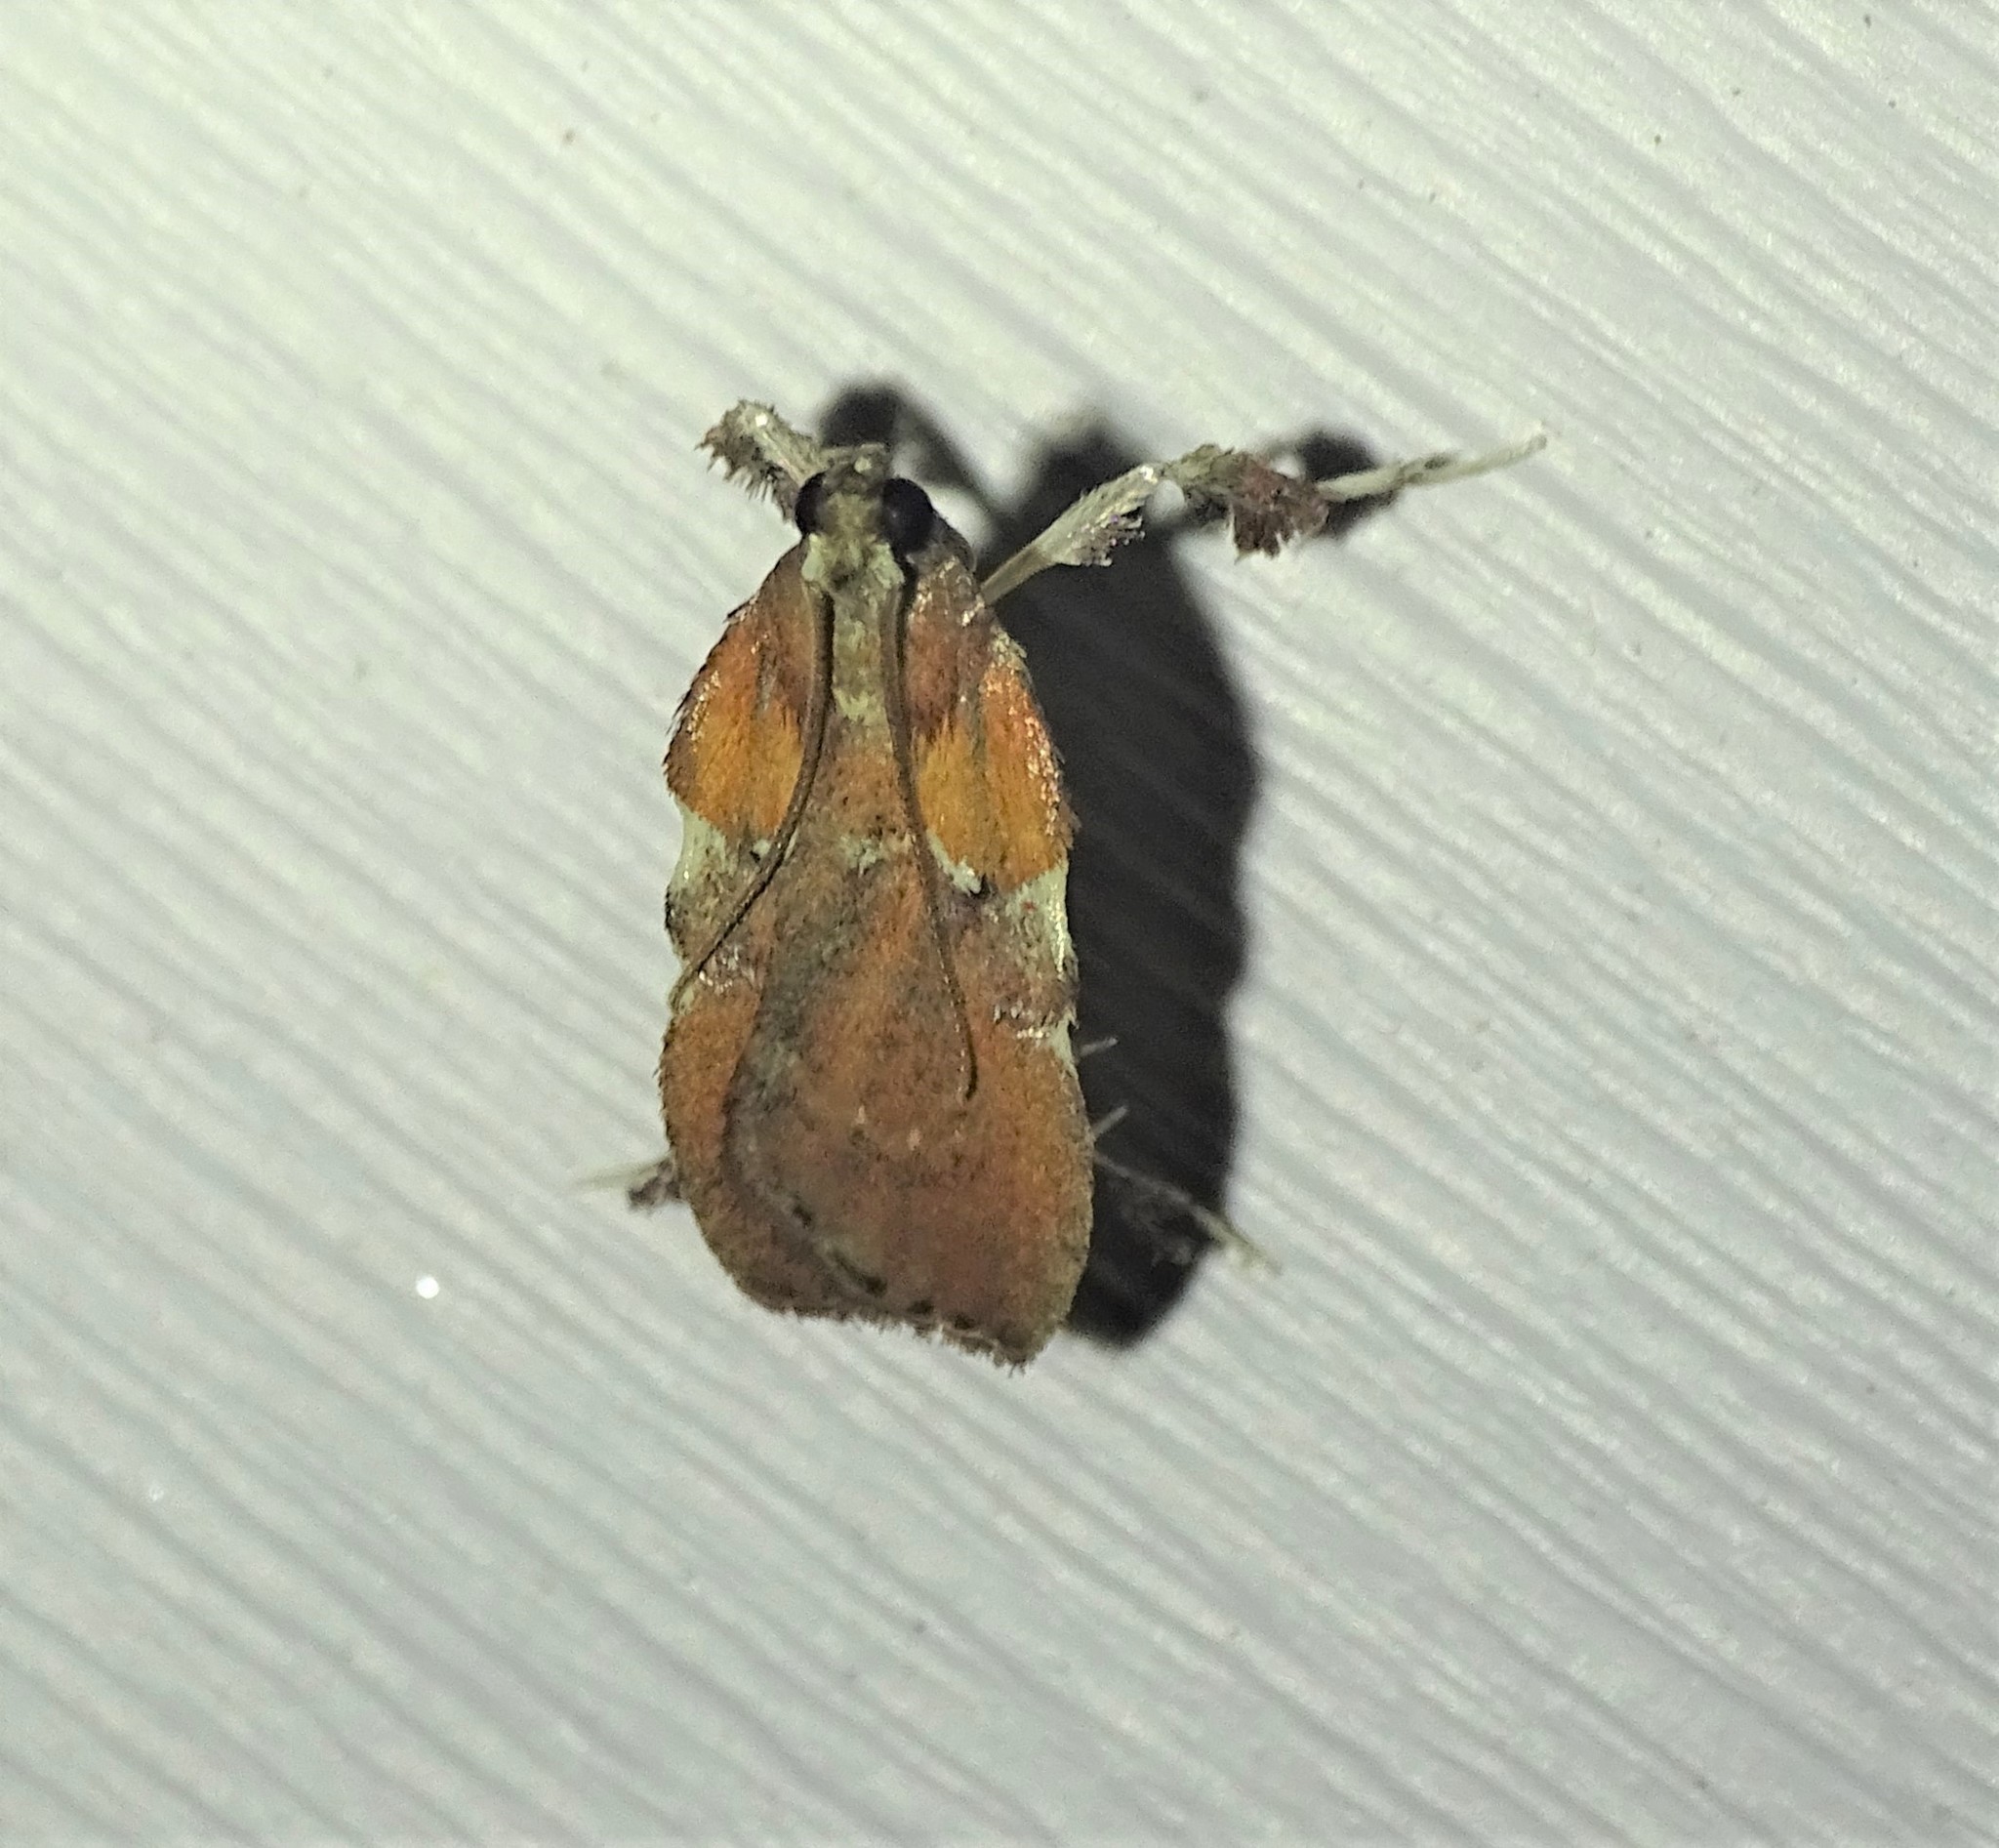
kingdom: Animalia
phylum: Arthropoda
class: Insecta
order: Lepidoptera
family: Pyralidae
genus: Galasa
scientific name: Galasa nigrinodis
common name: Boxwood leaftier moth
